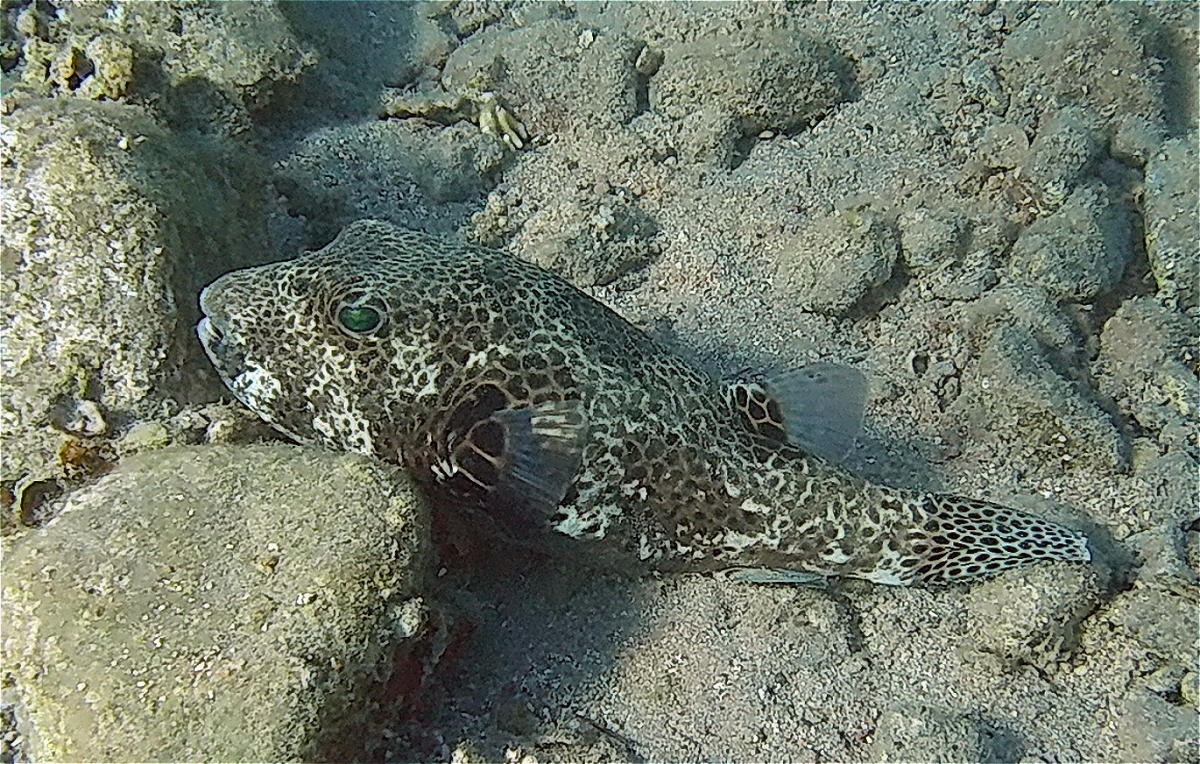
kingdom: Animalia
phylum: Chordata
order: Tetraodontiformes
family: Tetraodontidae
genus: Arothron
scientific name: Arothron stellatus
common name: Star blaasop
